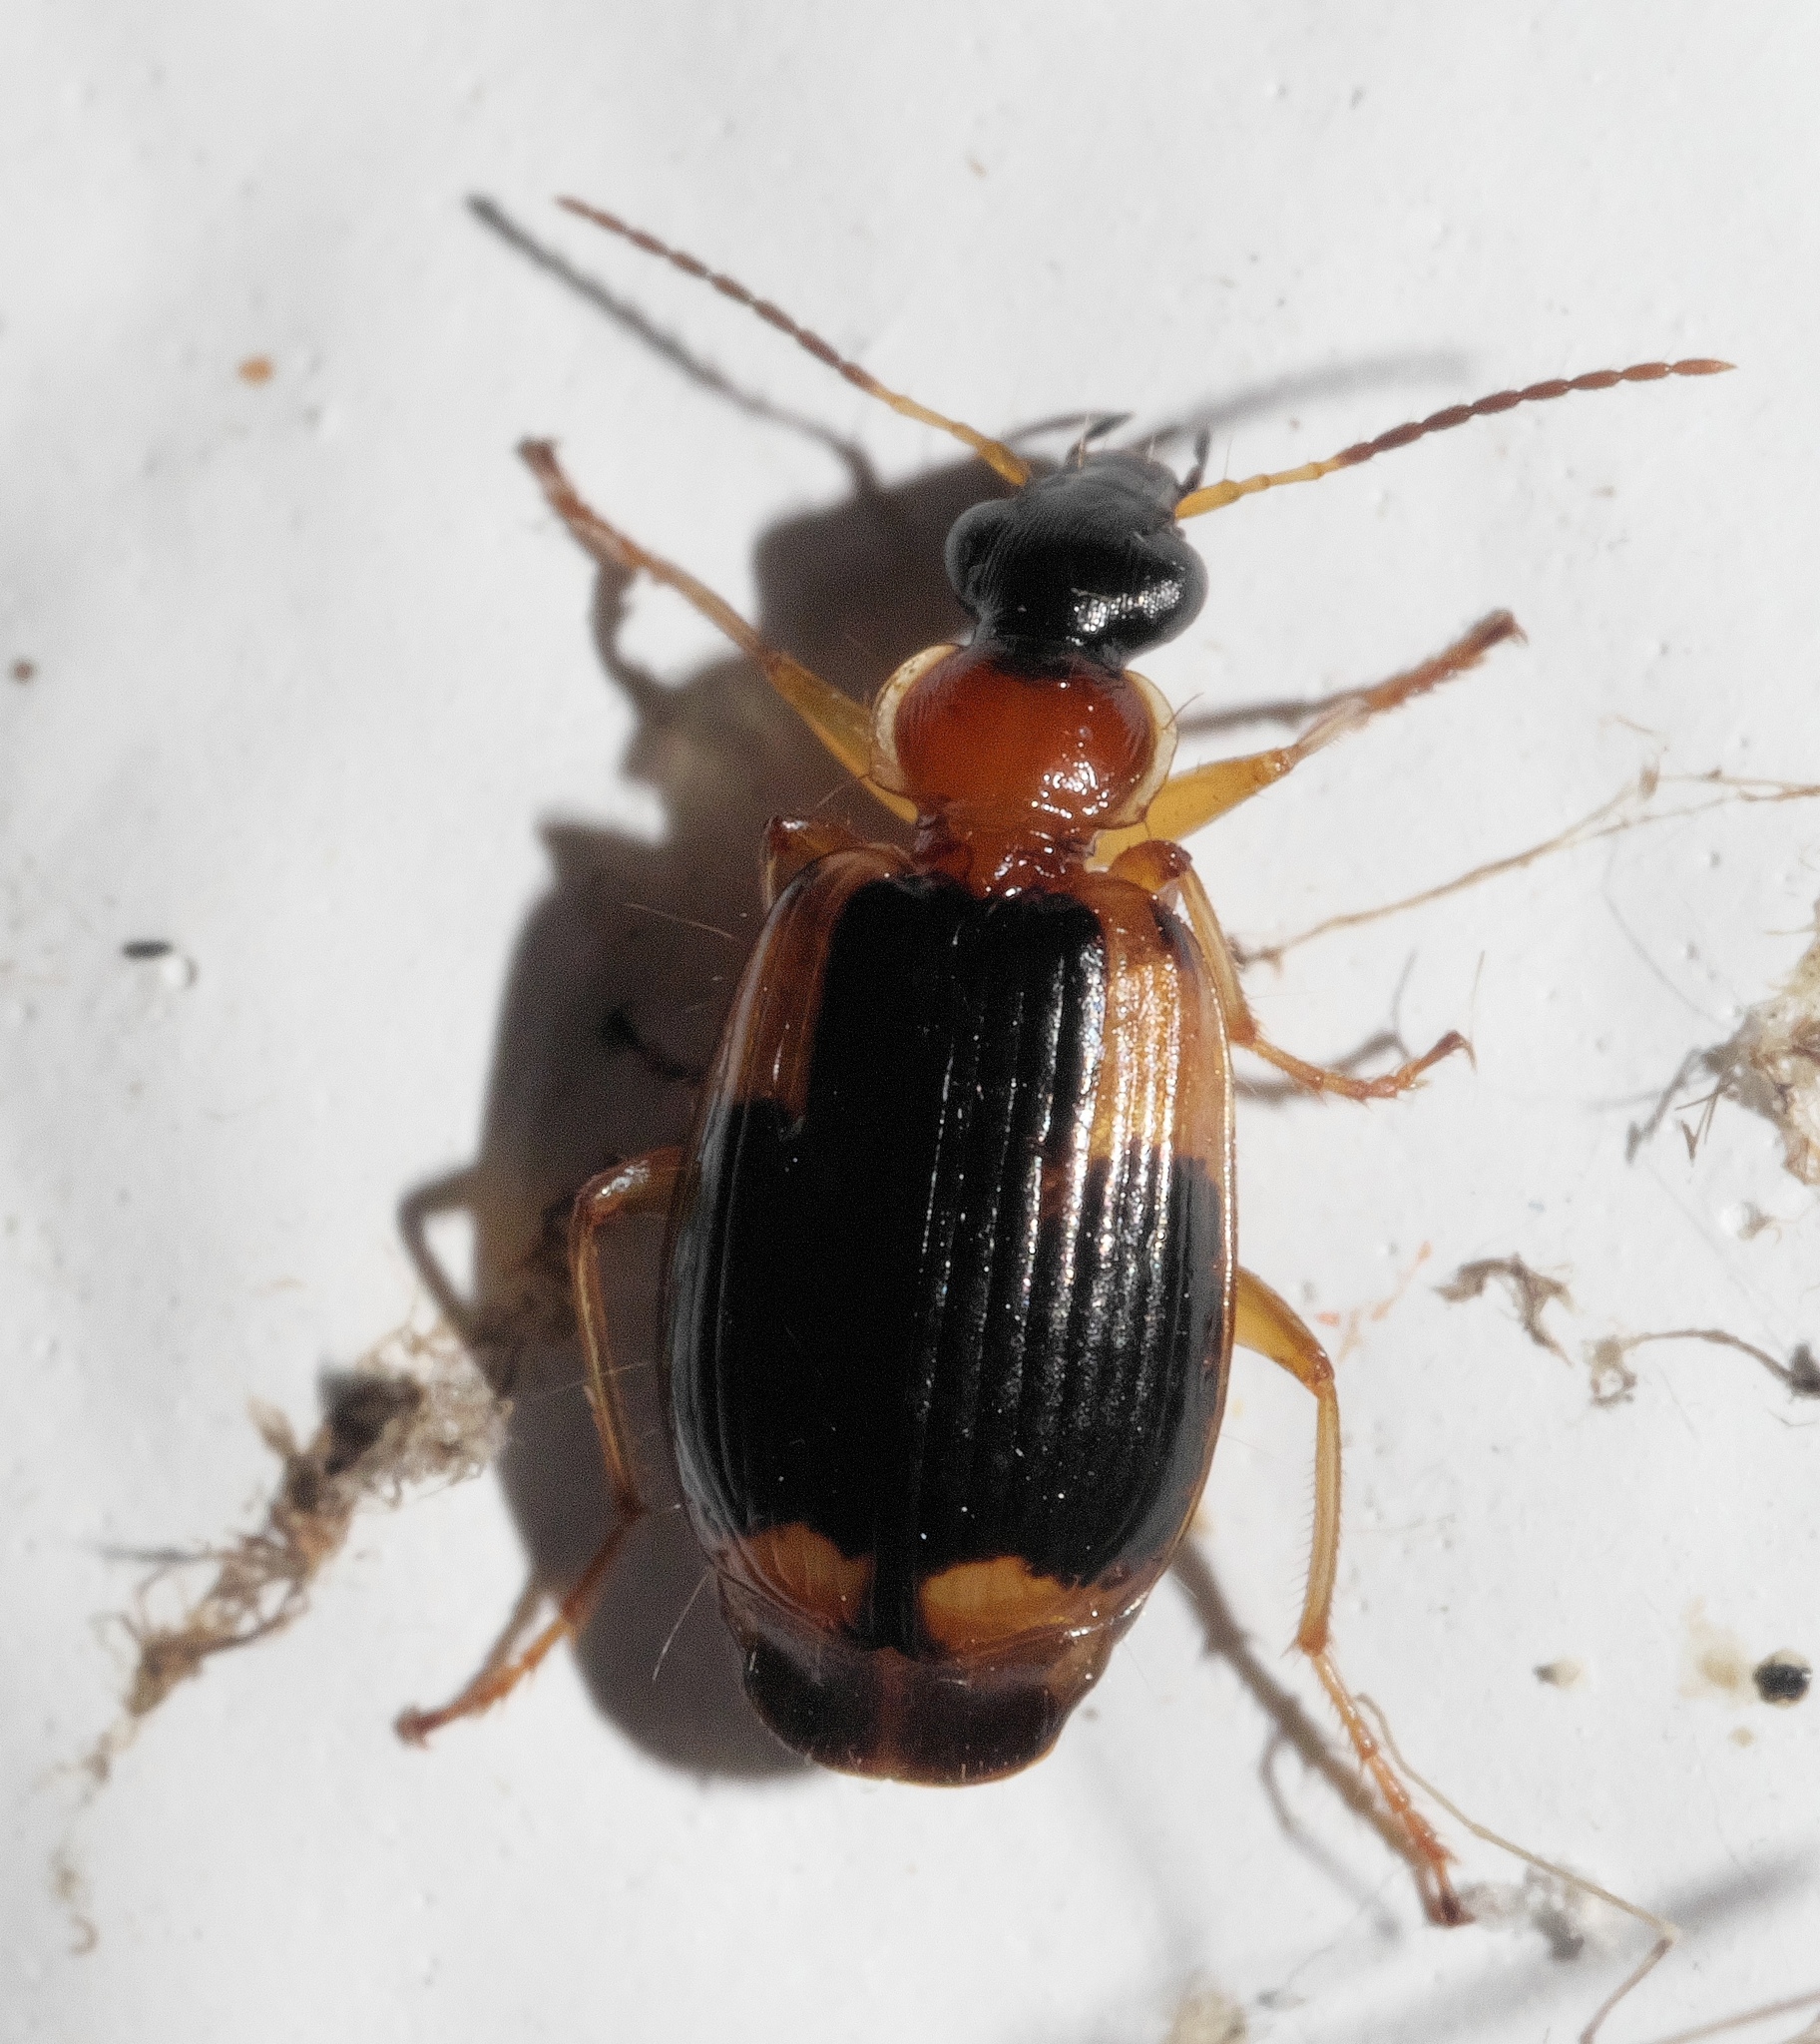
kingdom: Animalia
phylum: Arthropoda
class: Insecta
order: Coleoptera
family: Carabidae
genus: Lebia
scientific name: Lebia analis
